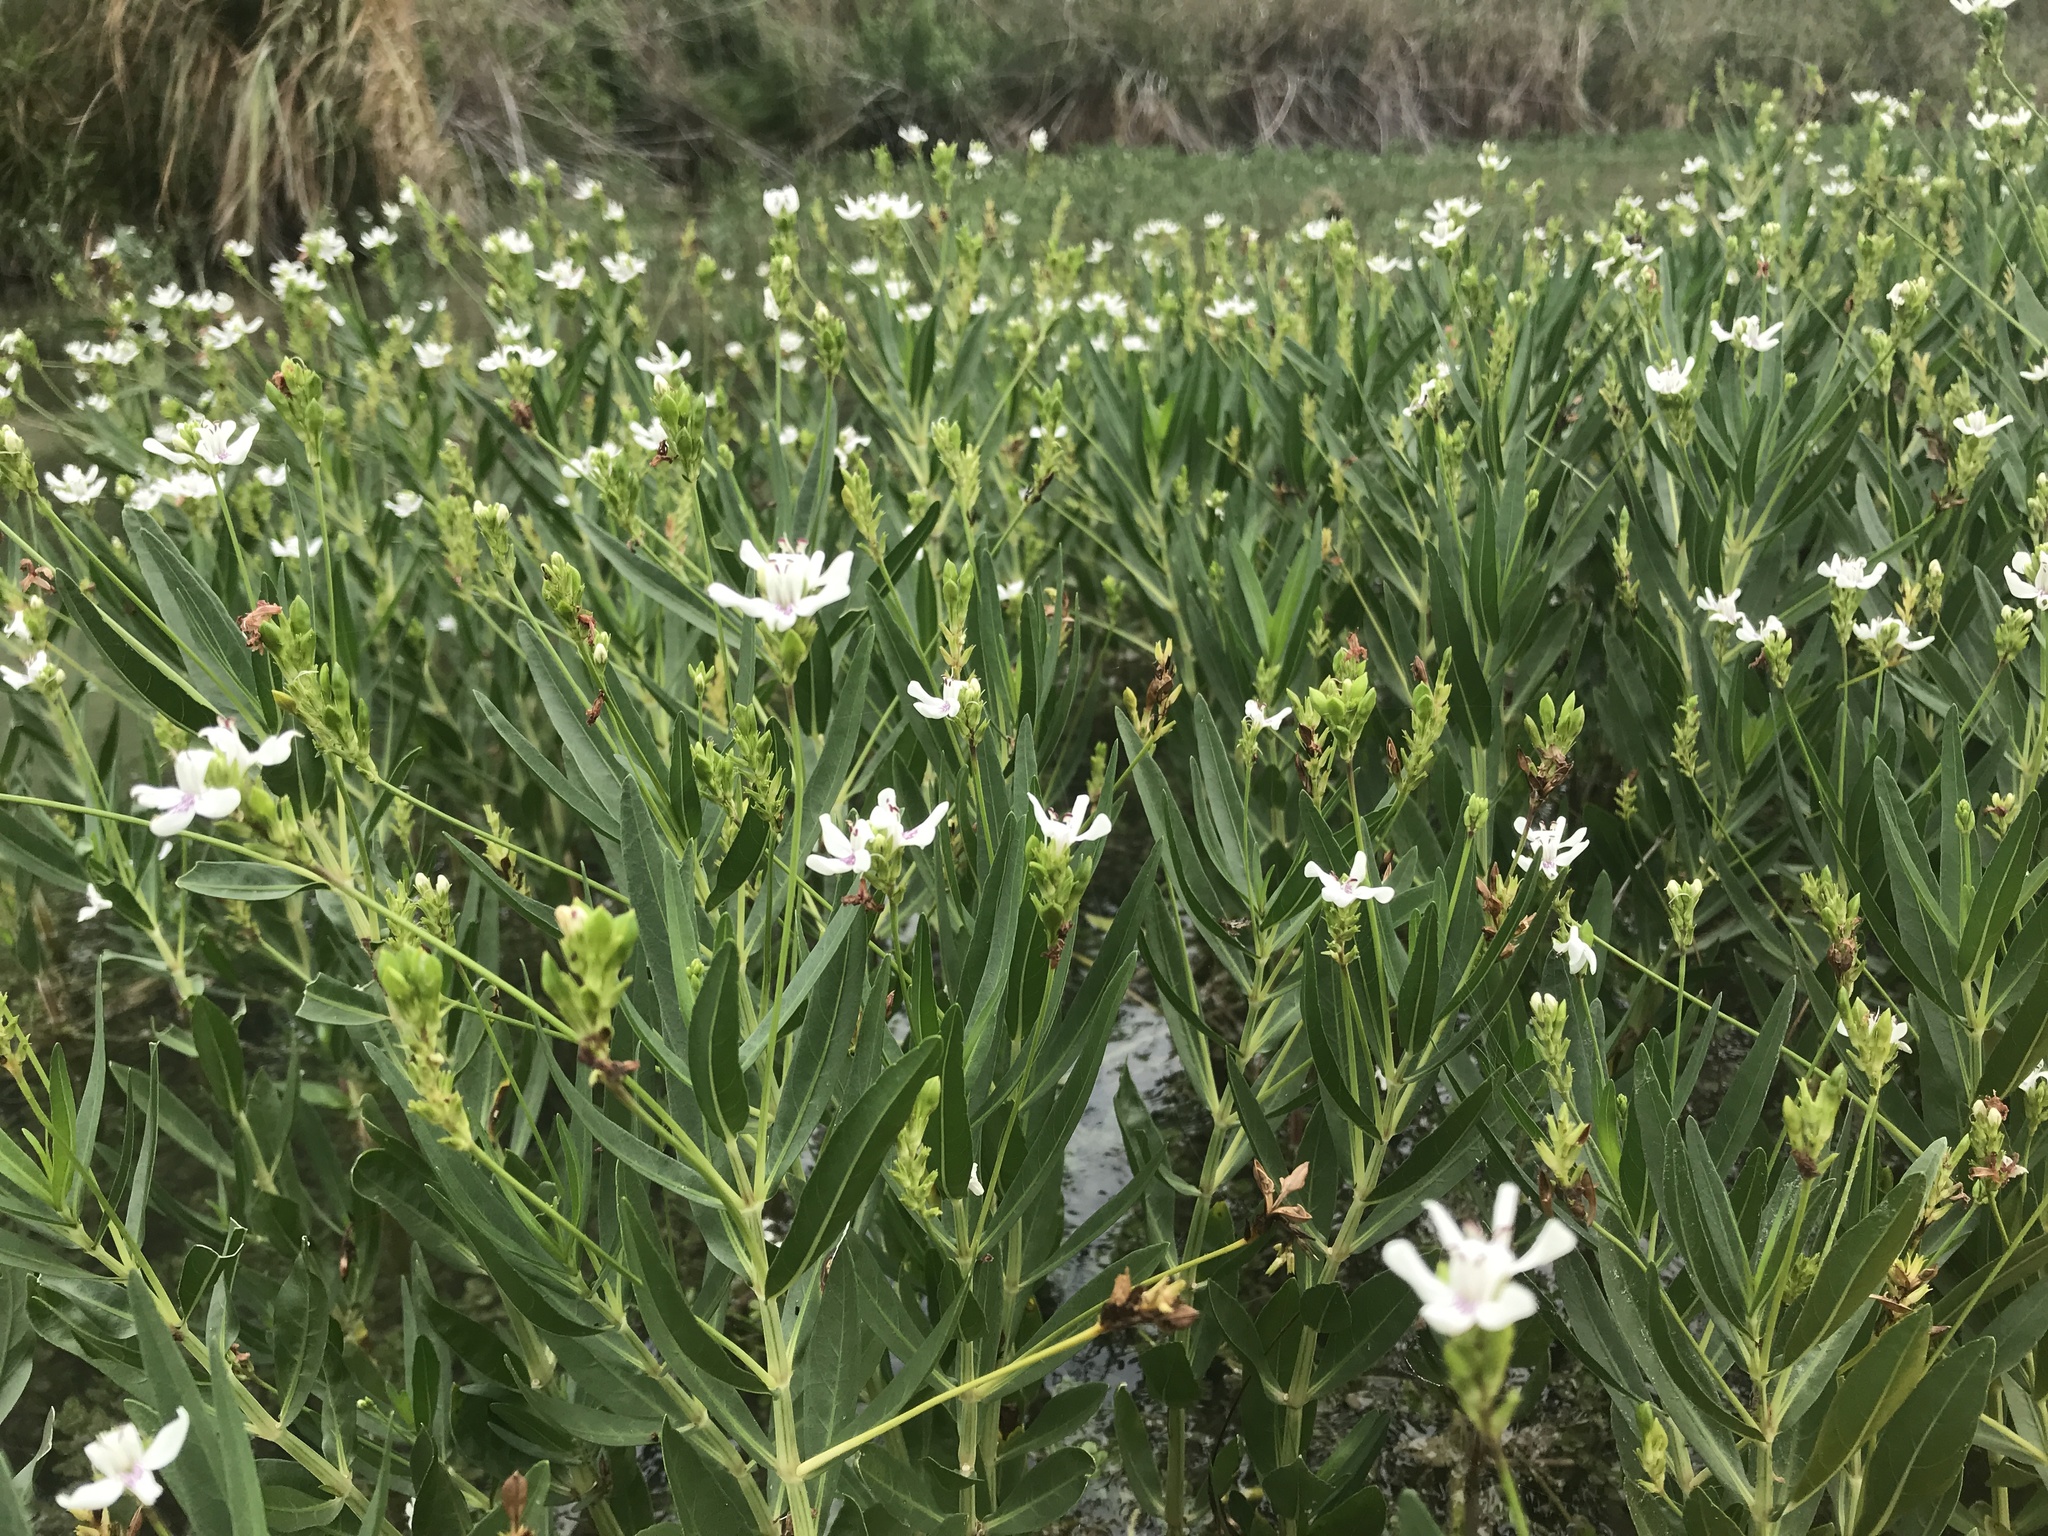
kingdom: Plantae
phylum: Tracheophyta
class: Magnoliopsida
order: Lamiales
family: Acanthaceae
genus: Dianthera
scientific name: Dianthera americana
